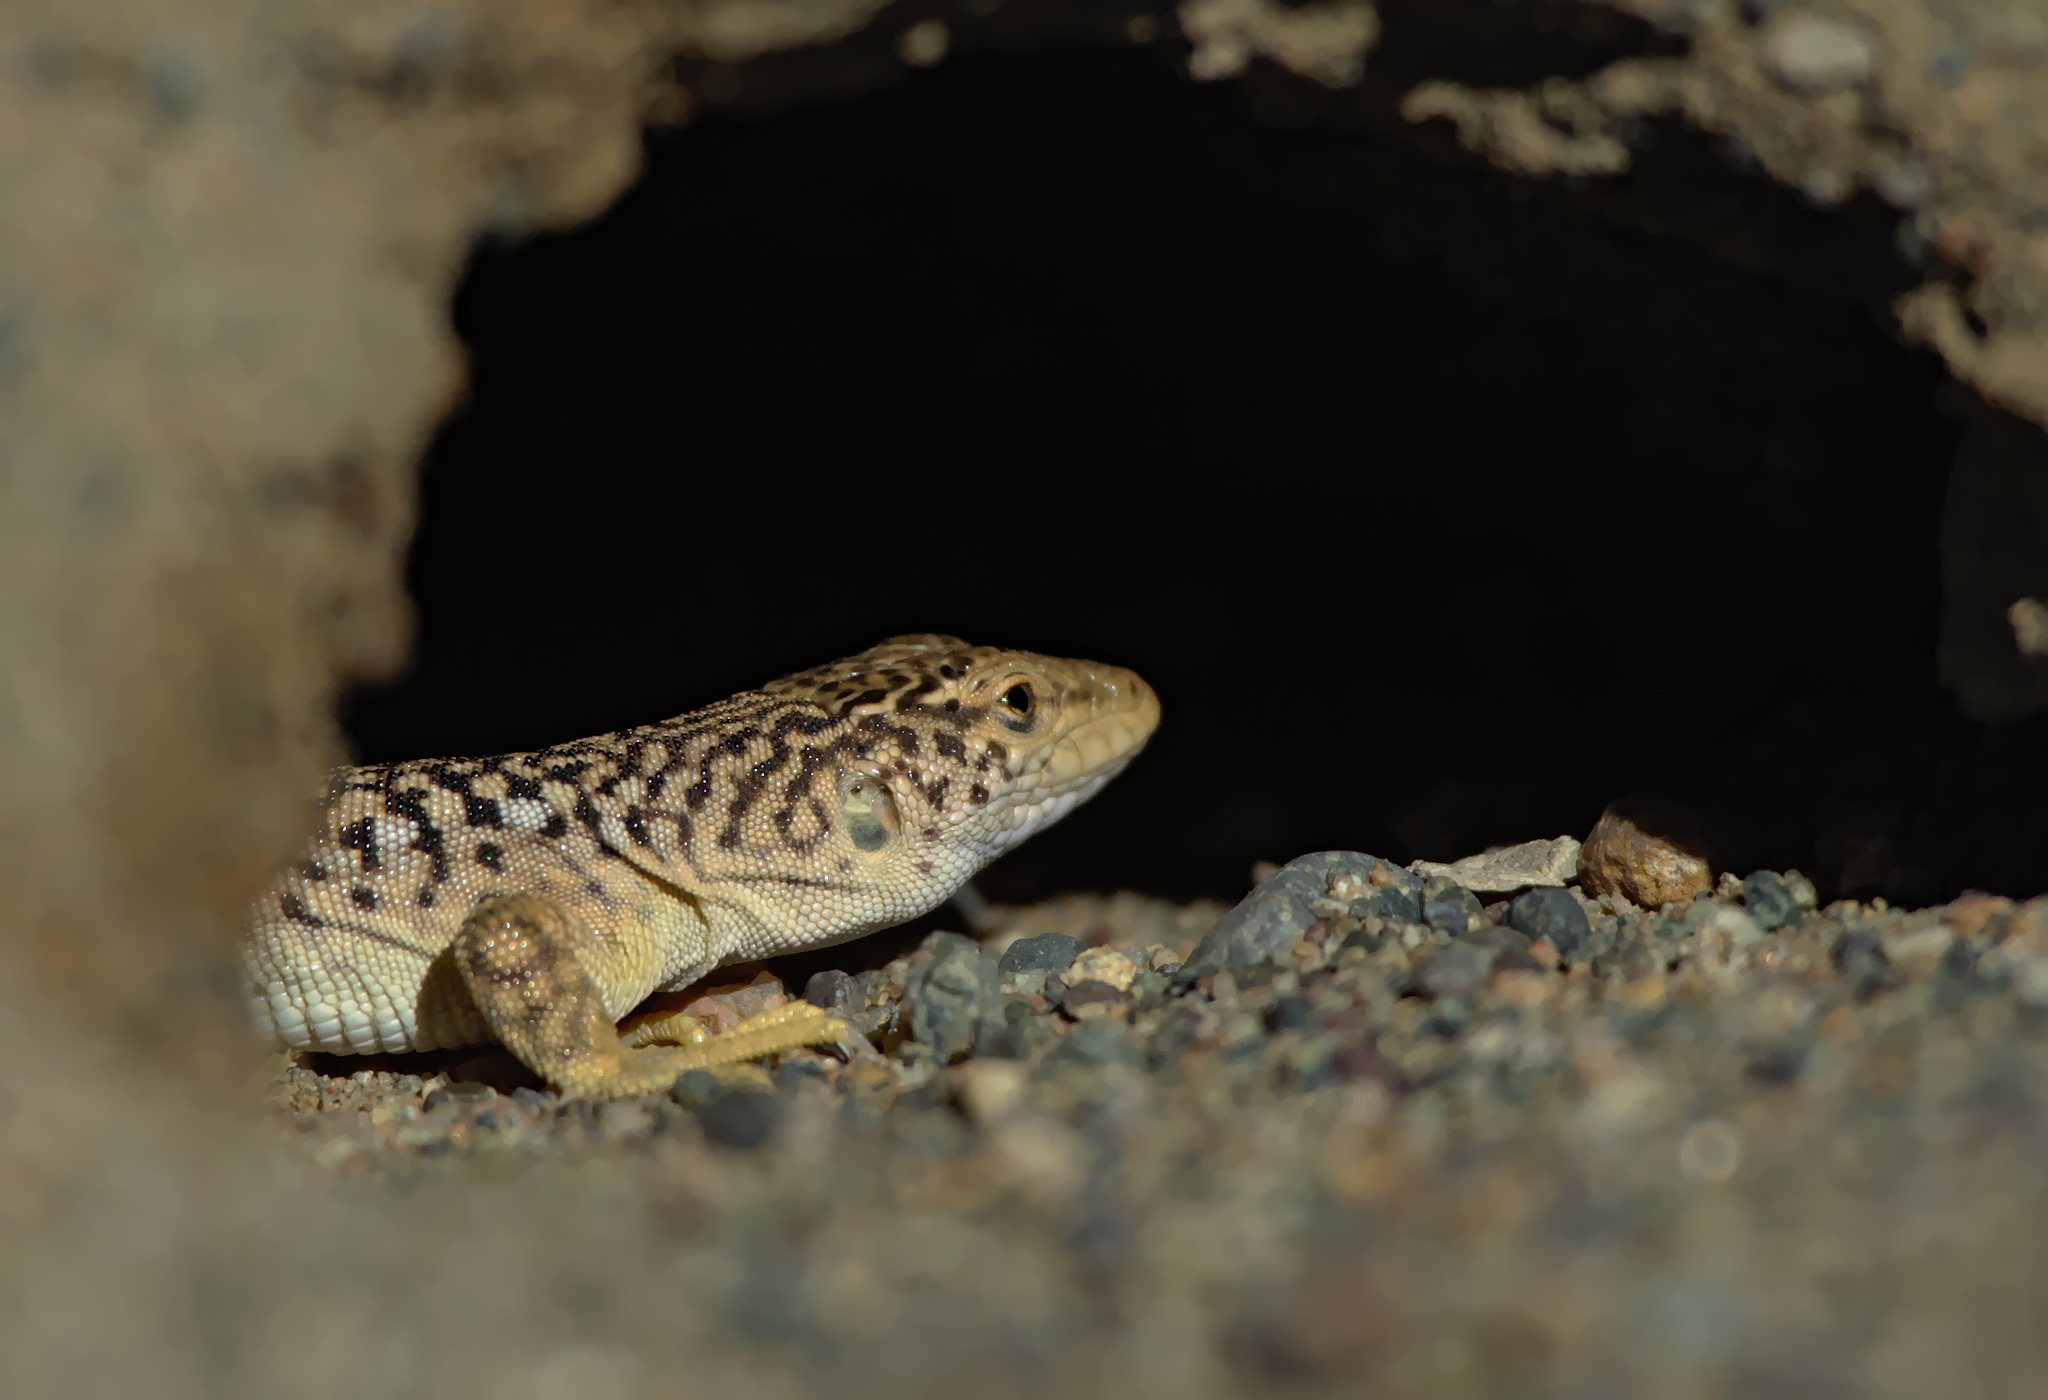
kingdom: Animalia
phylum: Chordata
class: Squamata
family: Lacertidae
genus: Eremias
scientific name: Eremias przewalskii
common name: Gobi racerunner
